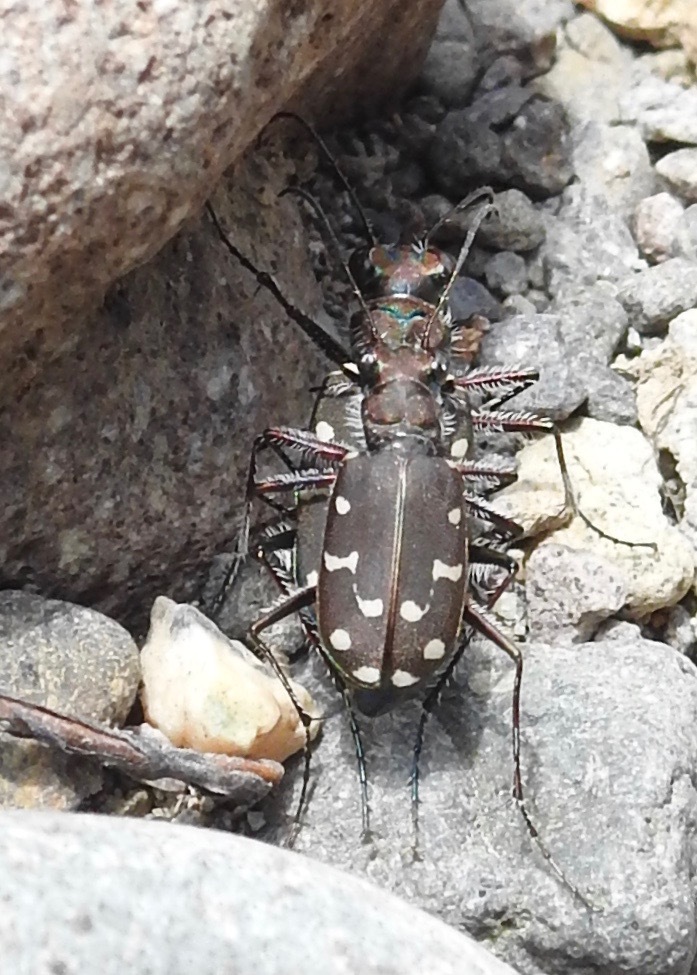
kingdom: Animalia
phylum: Arthropoda
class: Insecta
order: Coleoptera
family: Carabidae
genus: Cicindela
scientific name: Cicindela oregona
